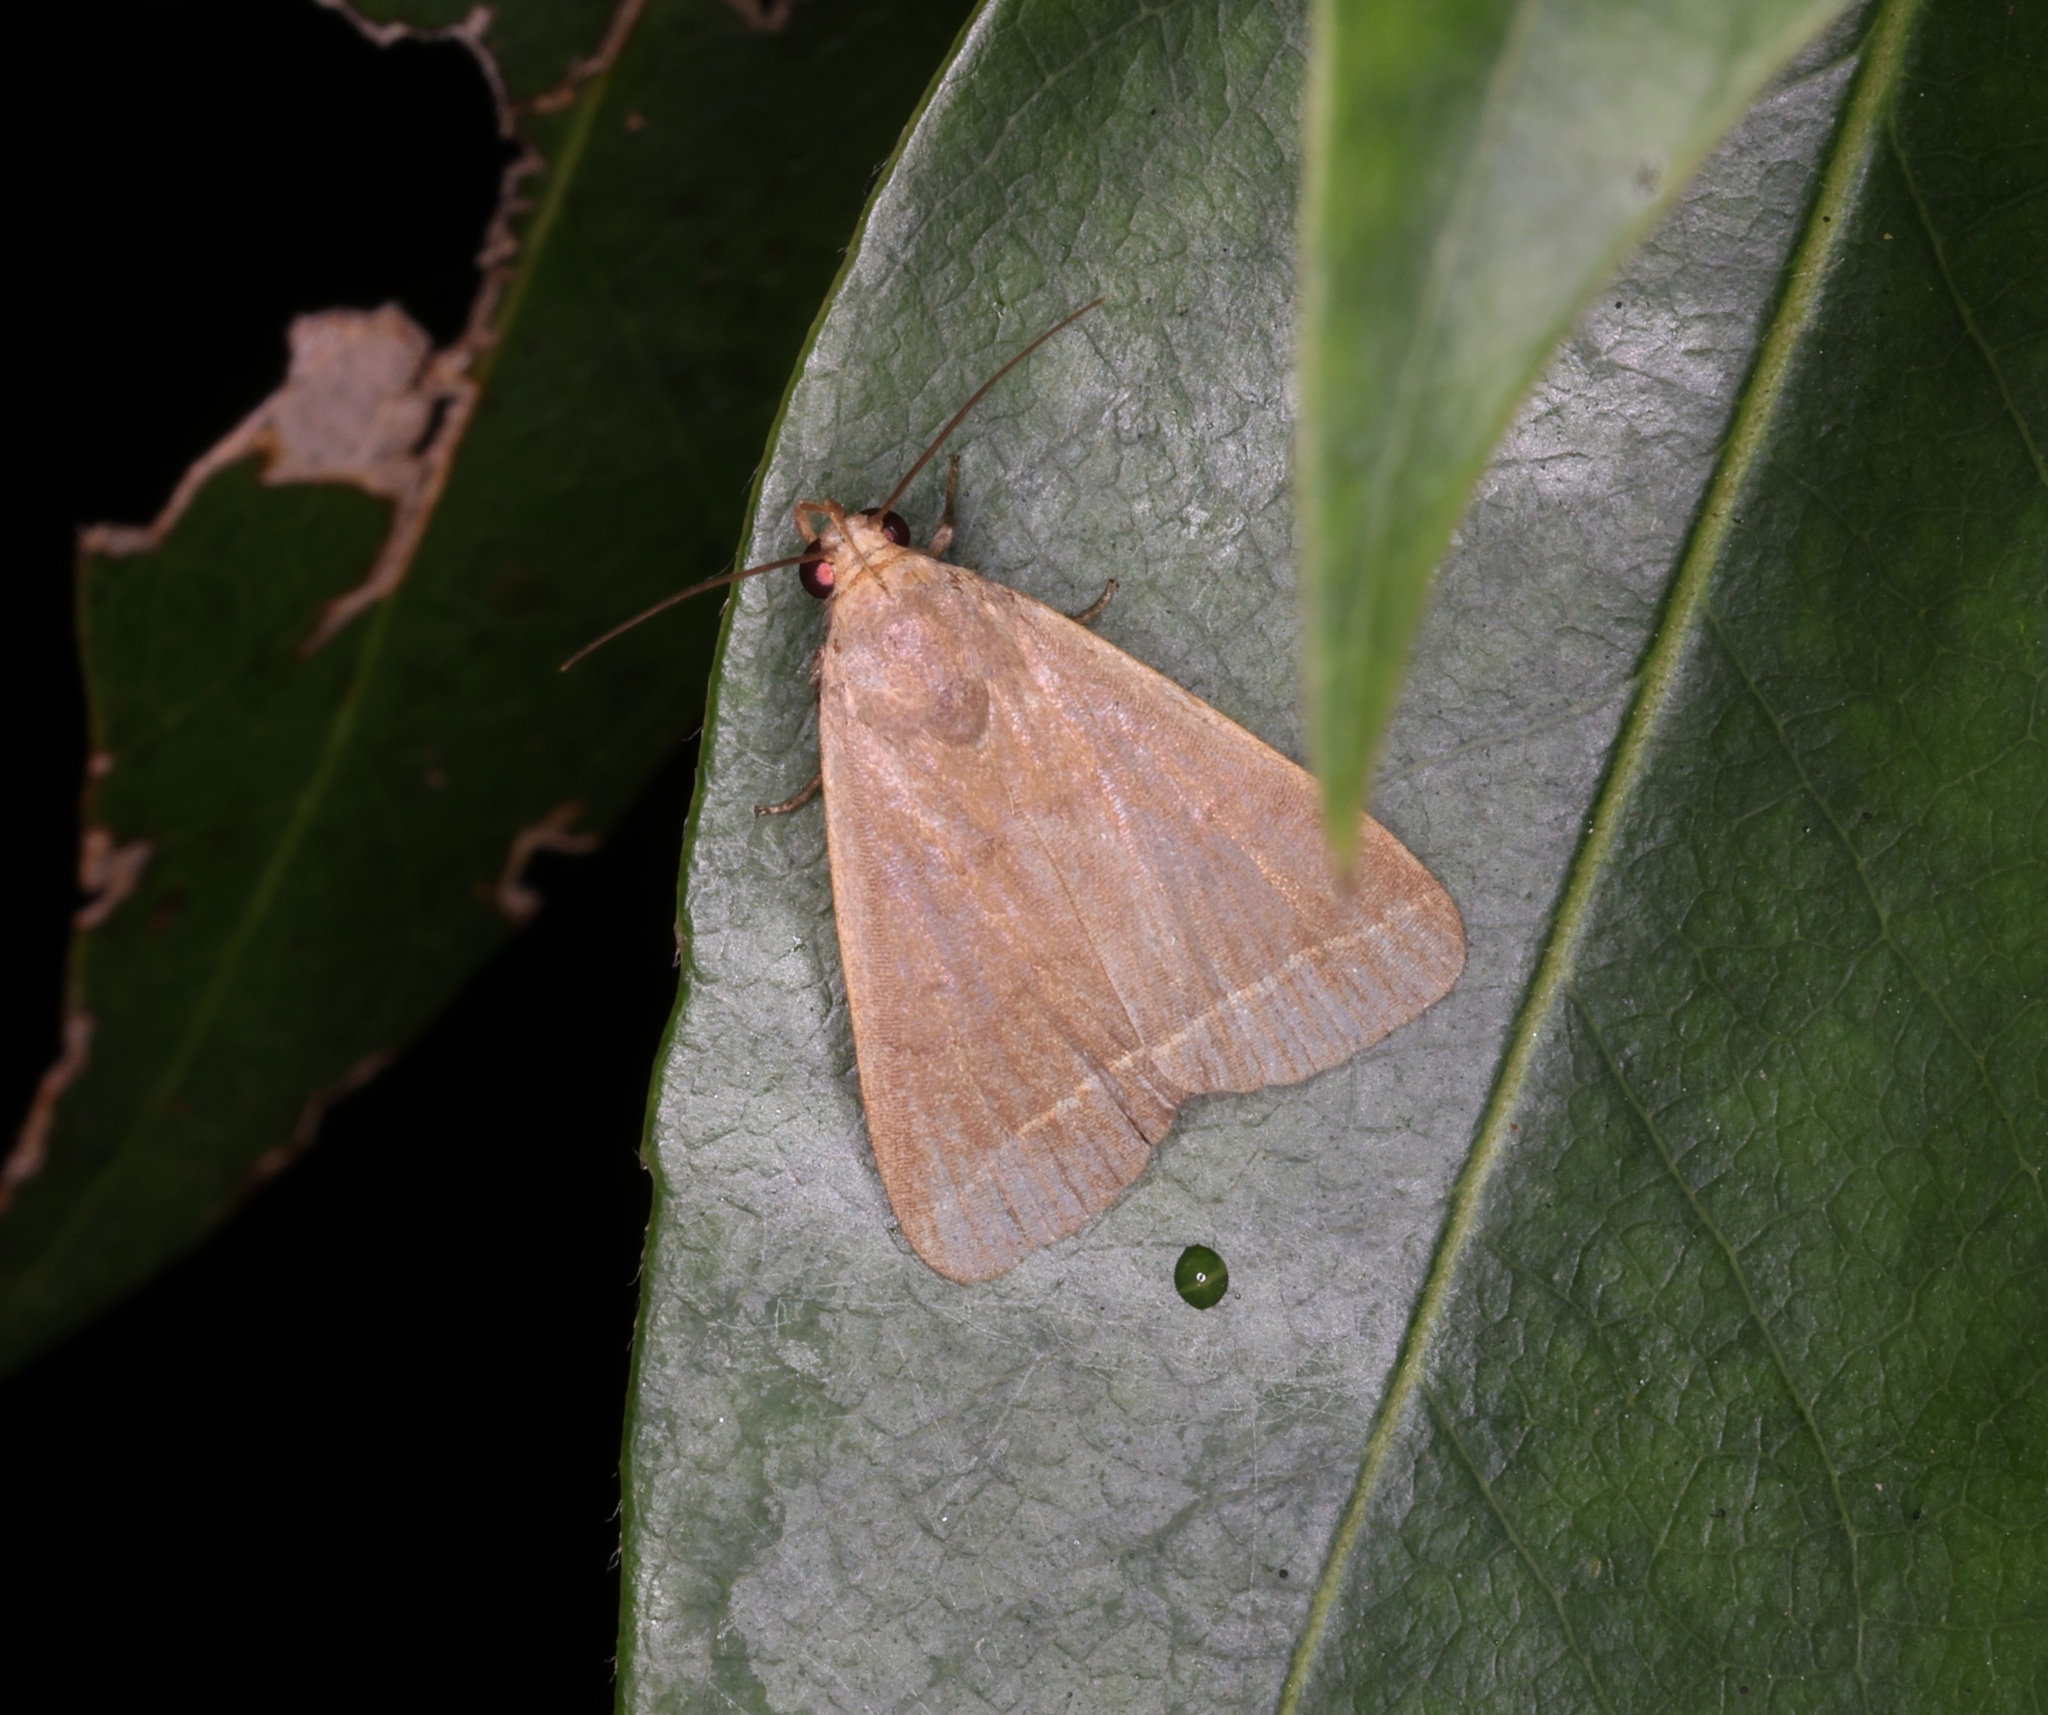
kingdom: Animalia
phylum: Arthropoda
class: Insecta
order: Lepidoptera
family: Erebidae
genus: Simplicia
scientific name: Simplicia cornicalis
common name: Tiki hut litter moth
